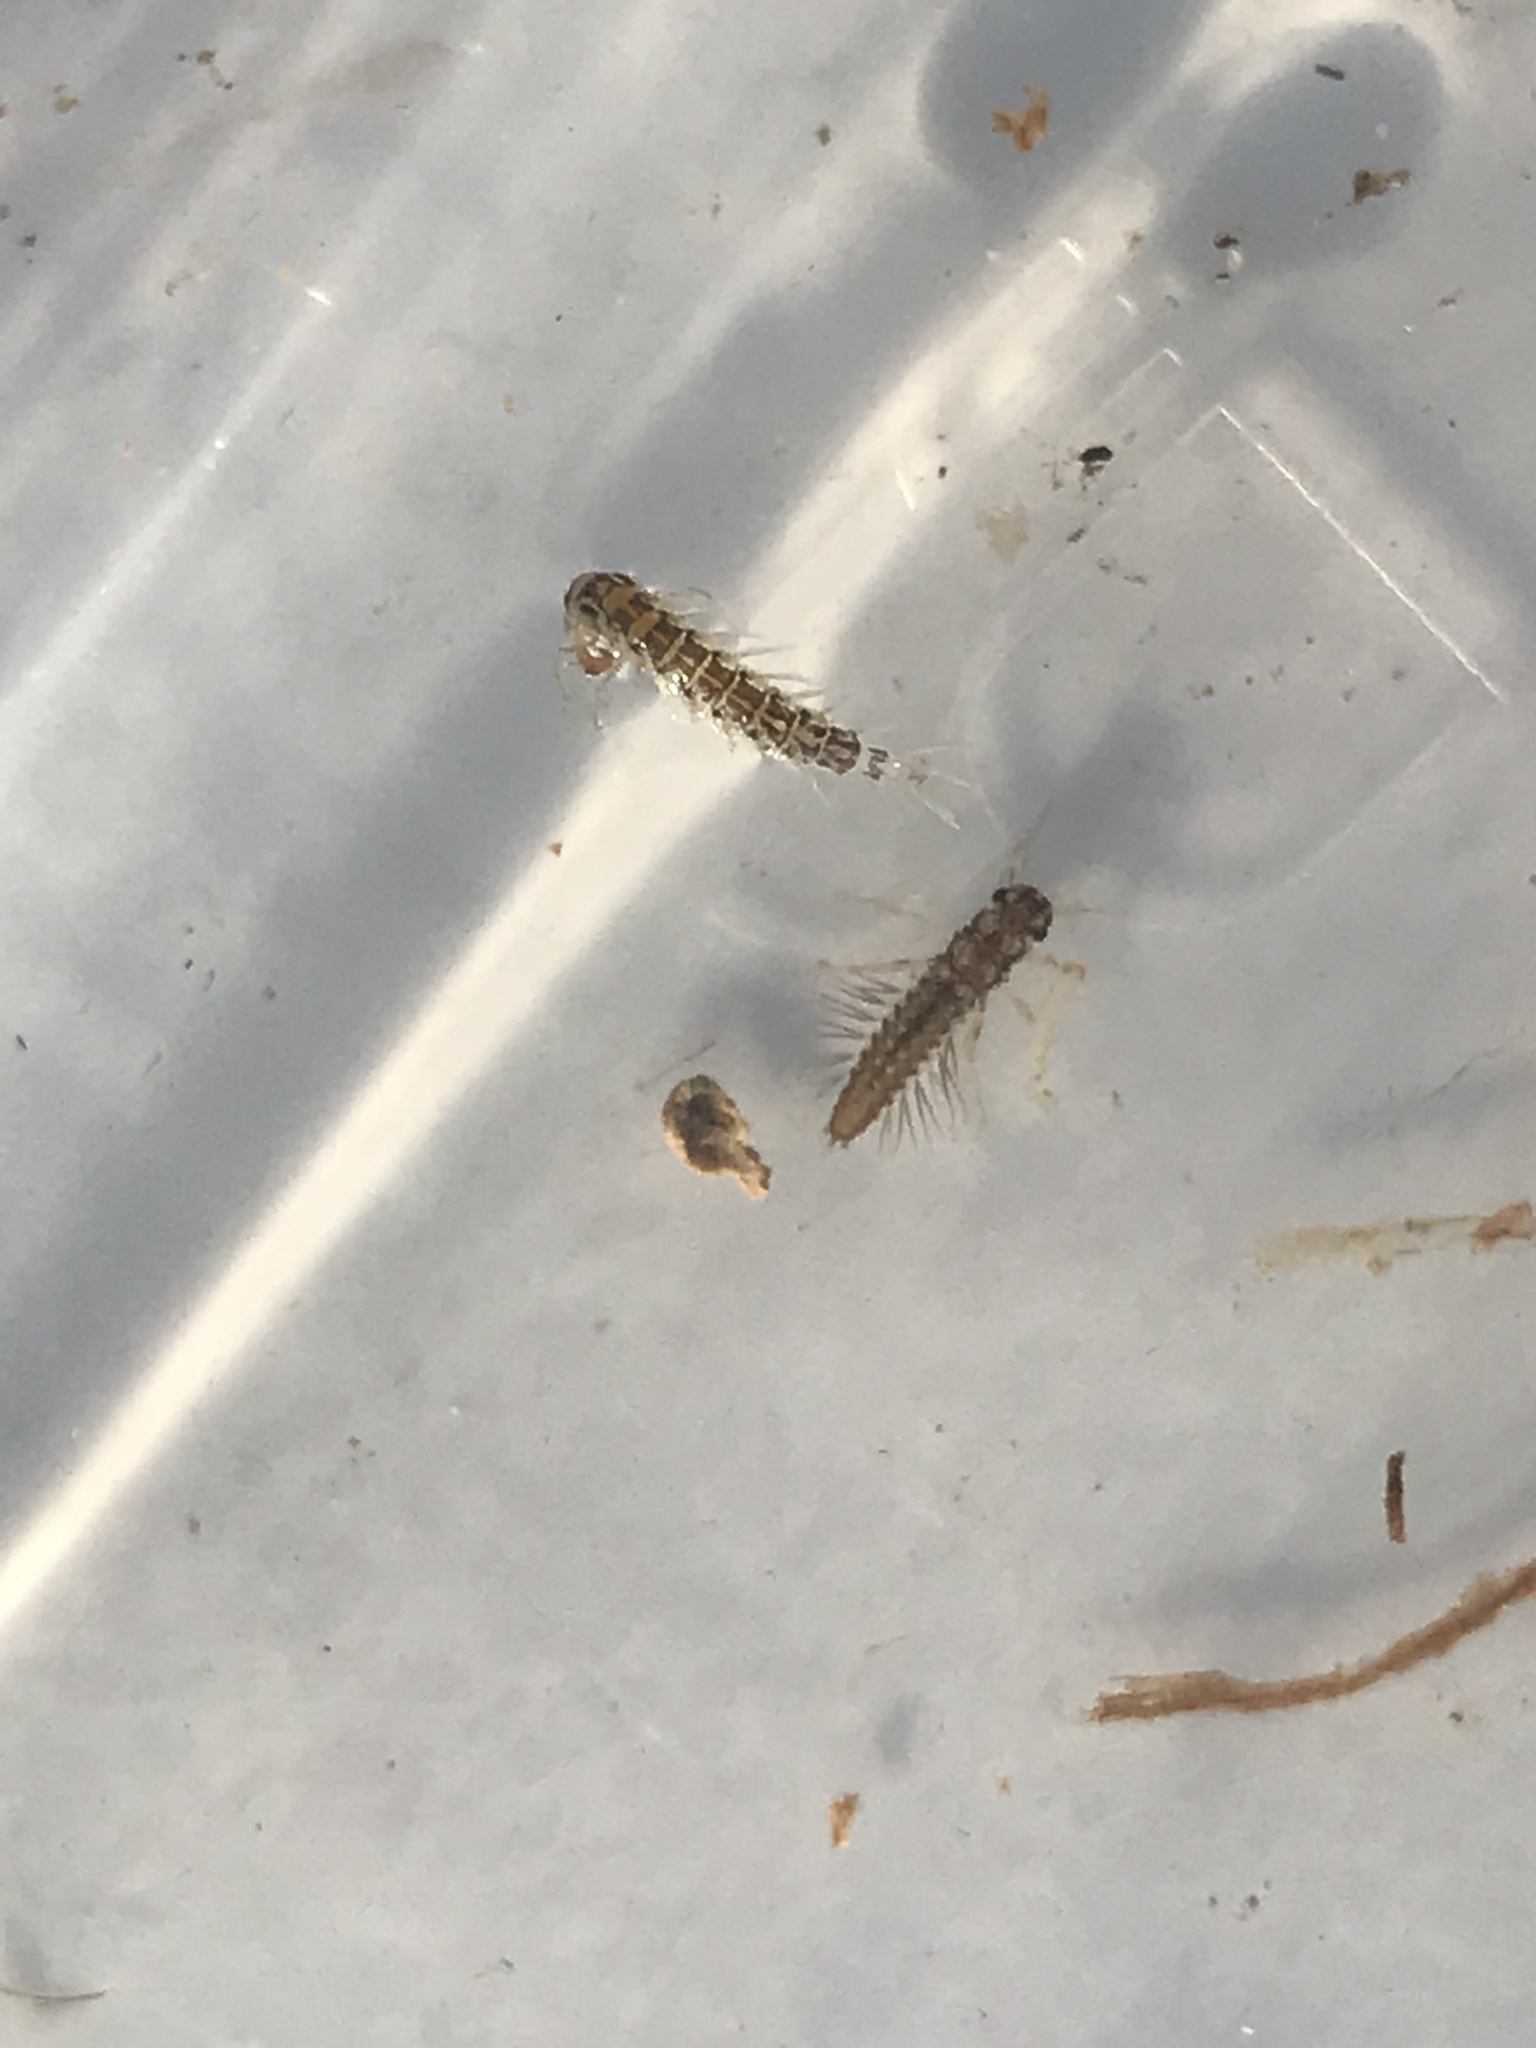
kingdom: Animalia
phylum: Arthropoda
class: Insecta
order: Ephemeroptera
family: Leptophlebiidae
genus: Paraleptophlebia
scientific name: Paraleptophlebia submarginata
